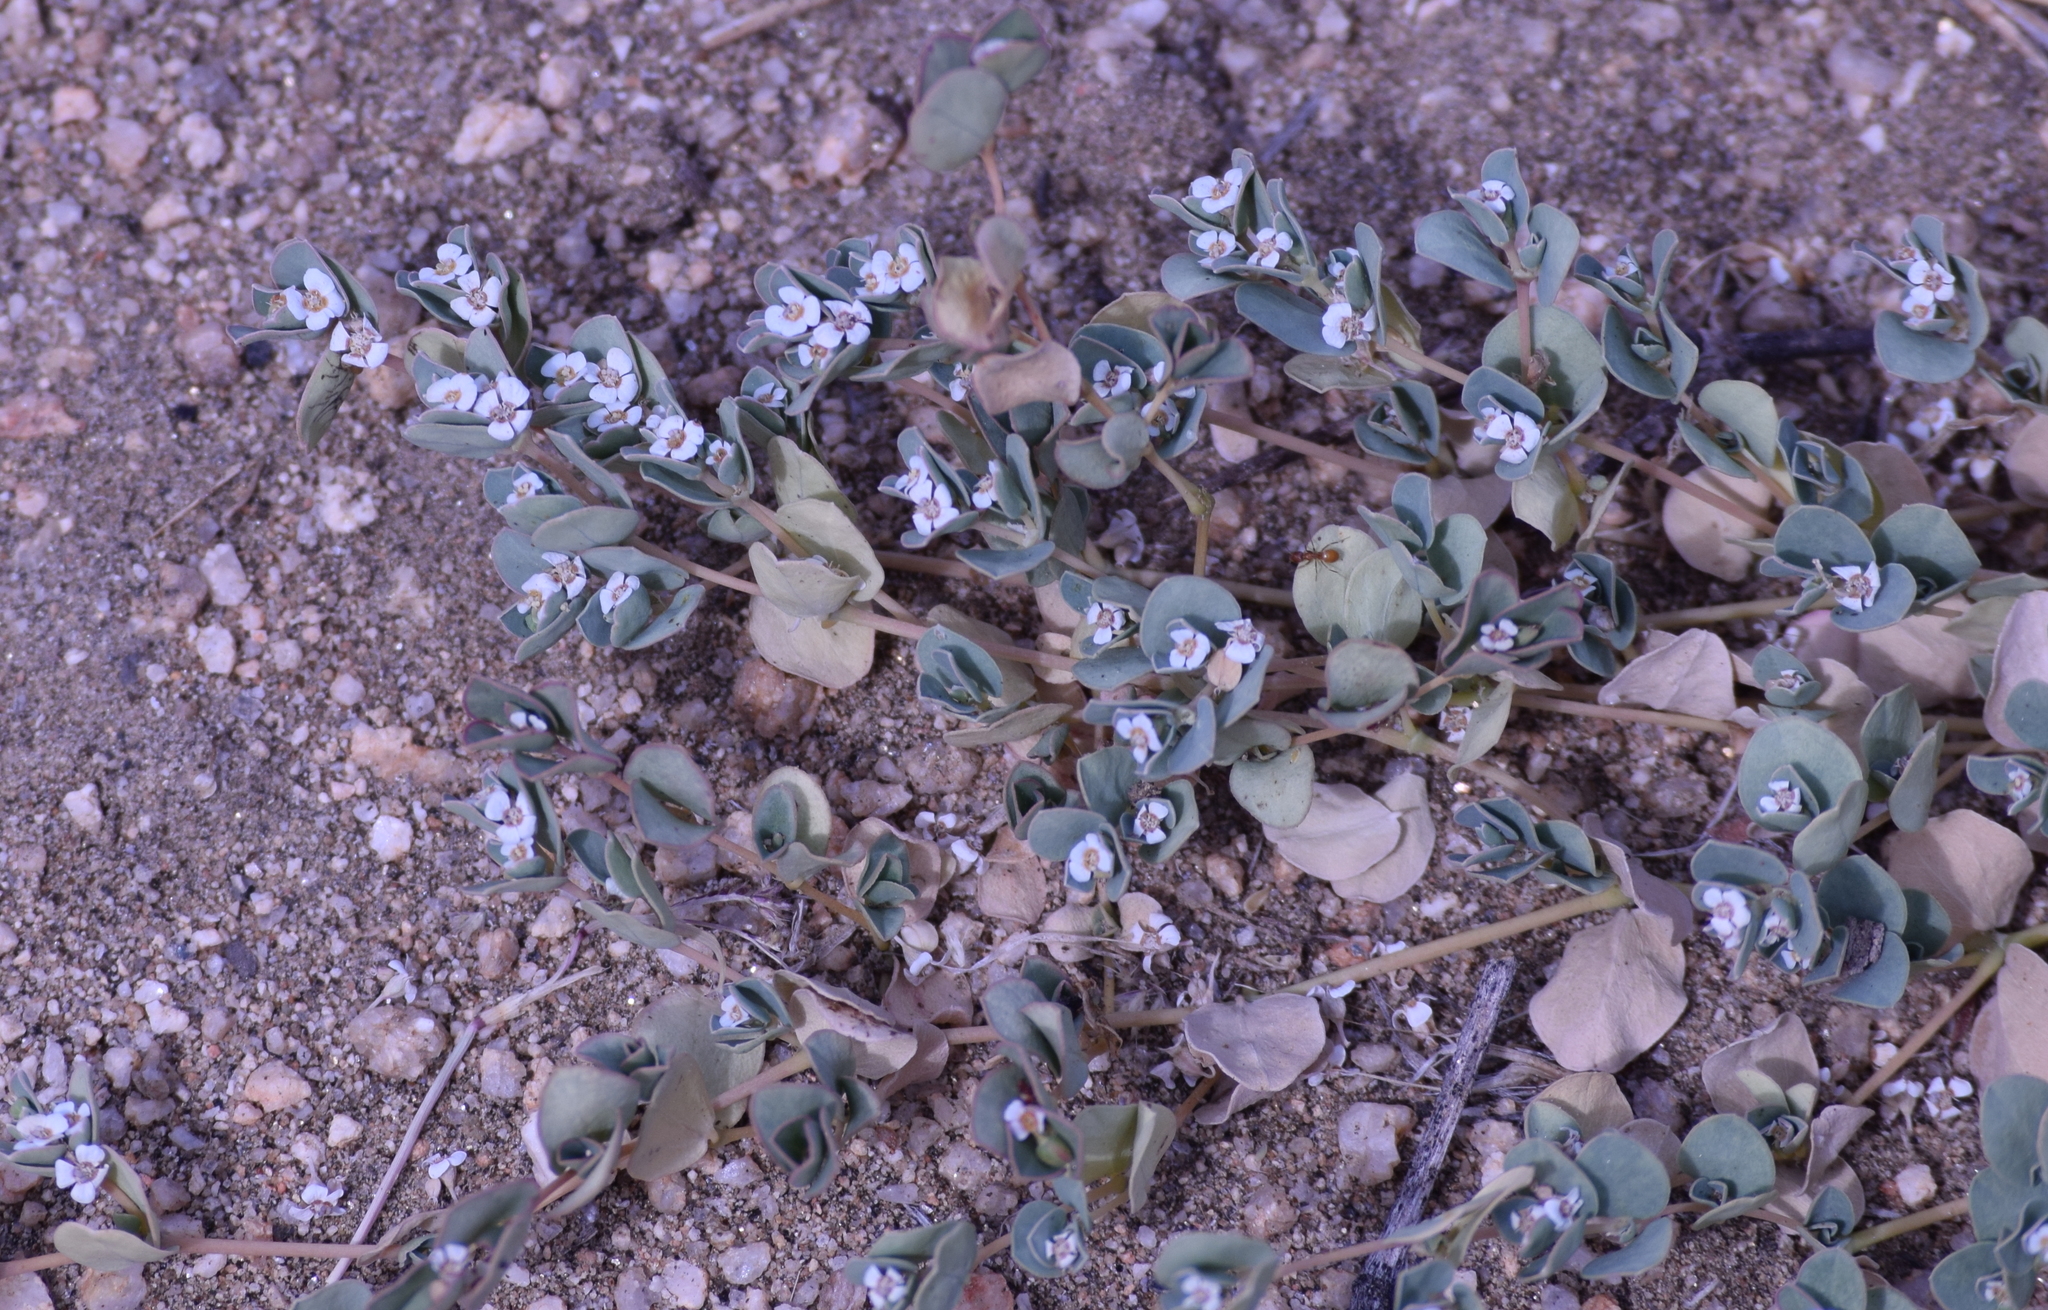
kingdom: Plantae
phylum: Tracheophyta
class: Magnoliopsida
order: Malpighiales
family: Euphorbiaceae
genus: Euphorbia
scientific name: Euphorbia albomarginata
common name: Whitemargin sandmat
